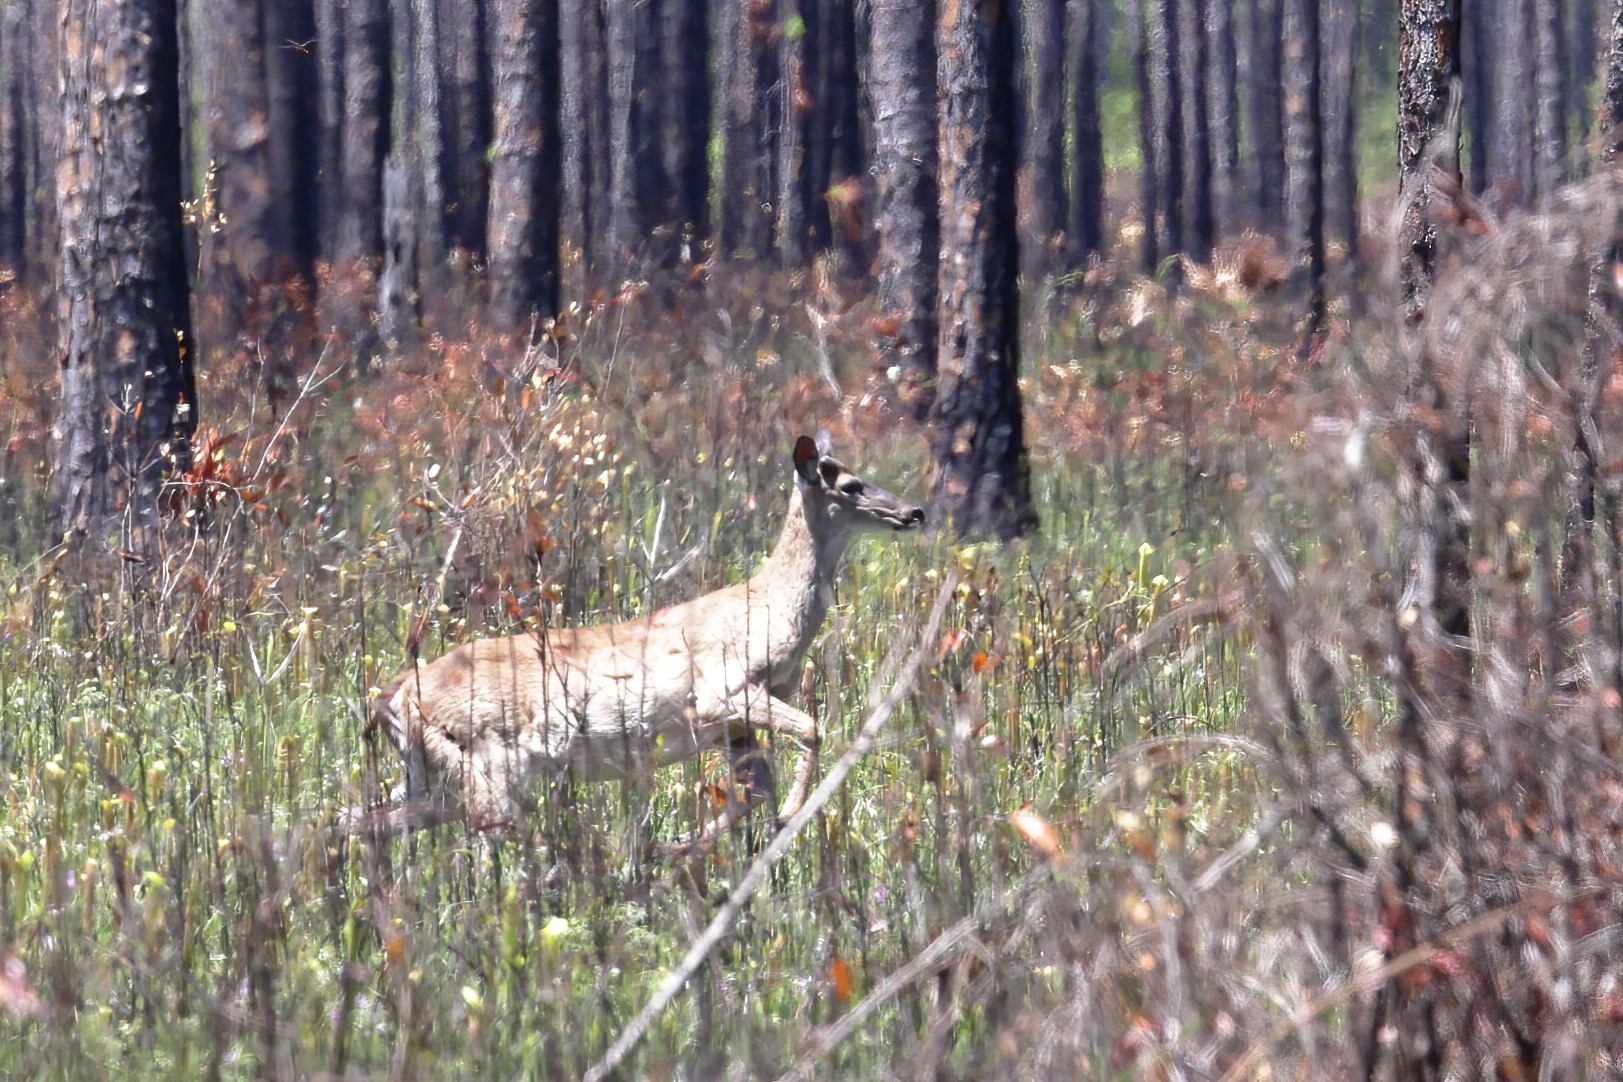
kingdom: Animalia
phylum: Chordata
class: Mammalia
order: Artiodactyla
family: Cervidae
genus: Odocoileus
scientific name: Odocoileus virginianus
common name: White-tailed deer
